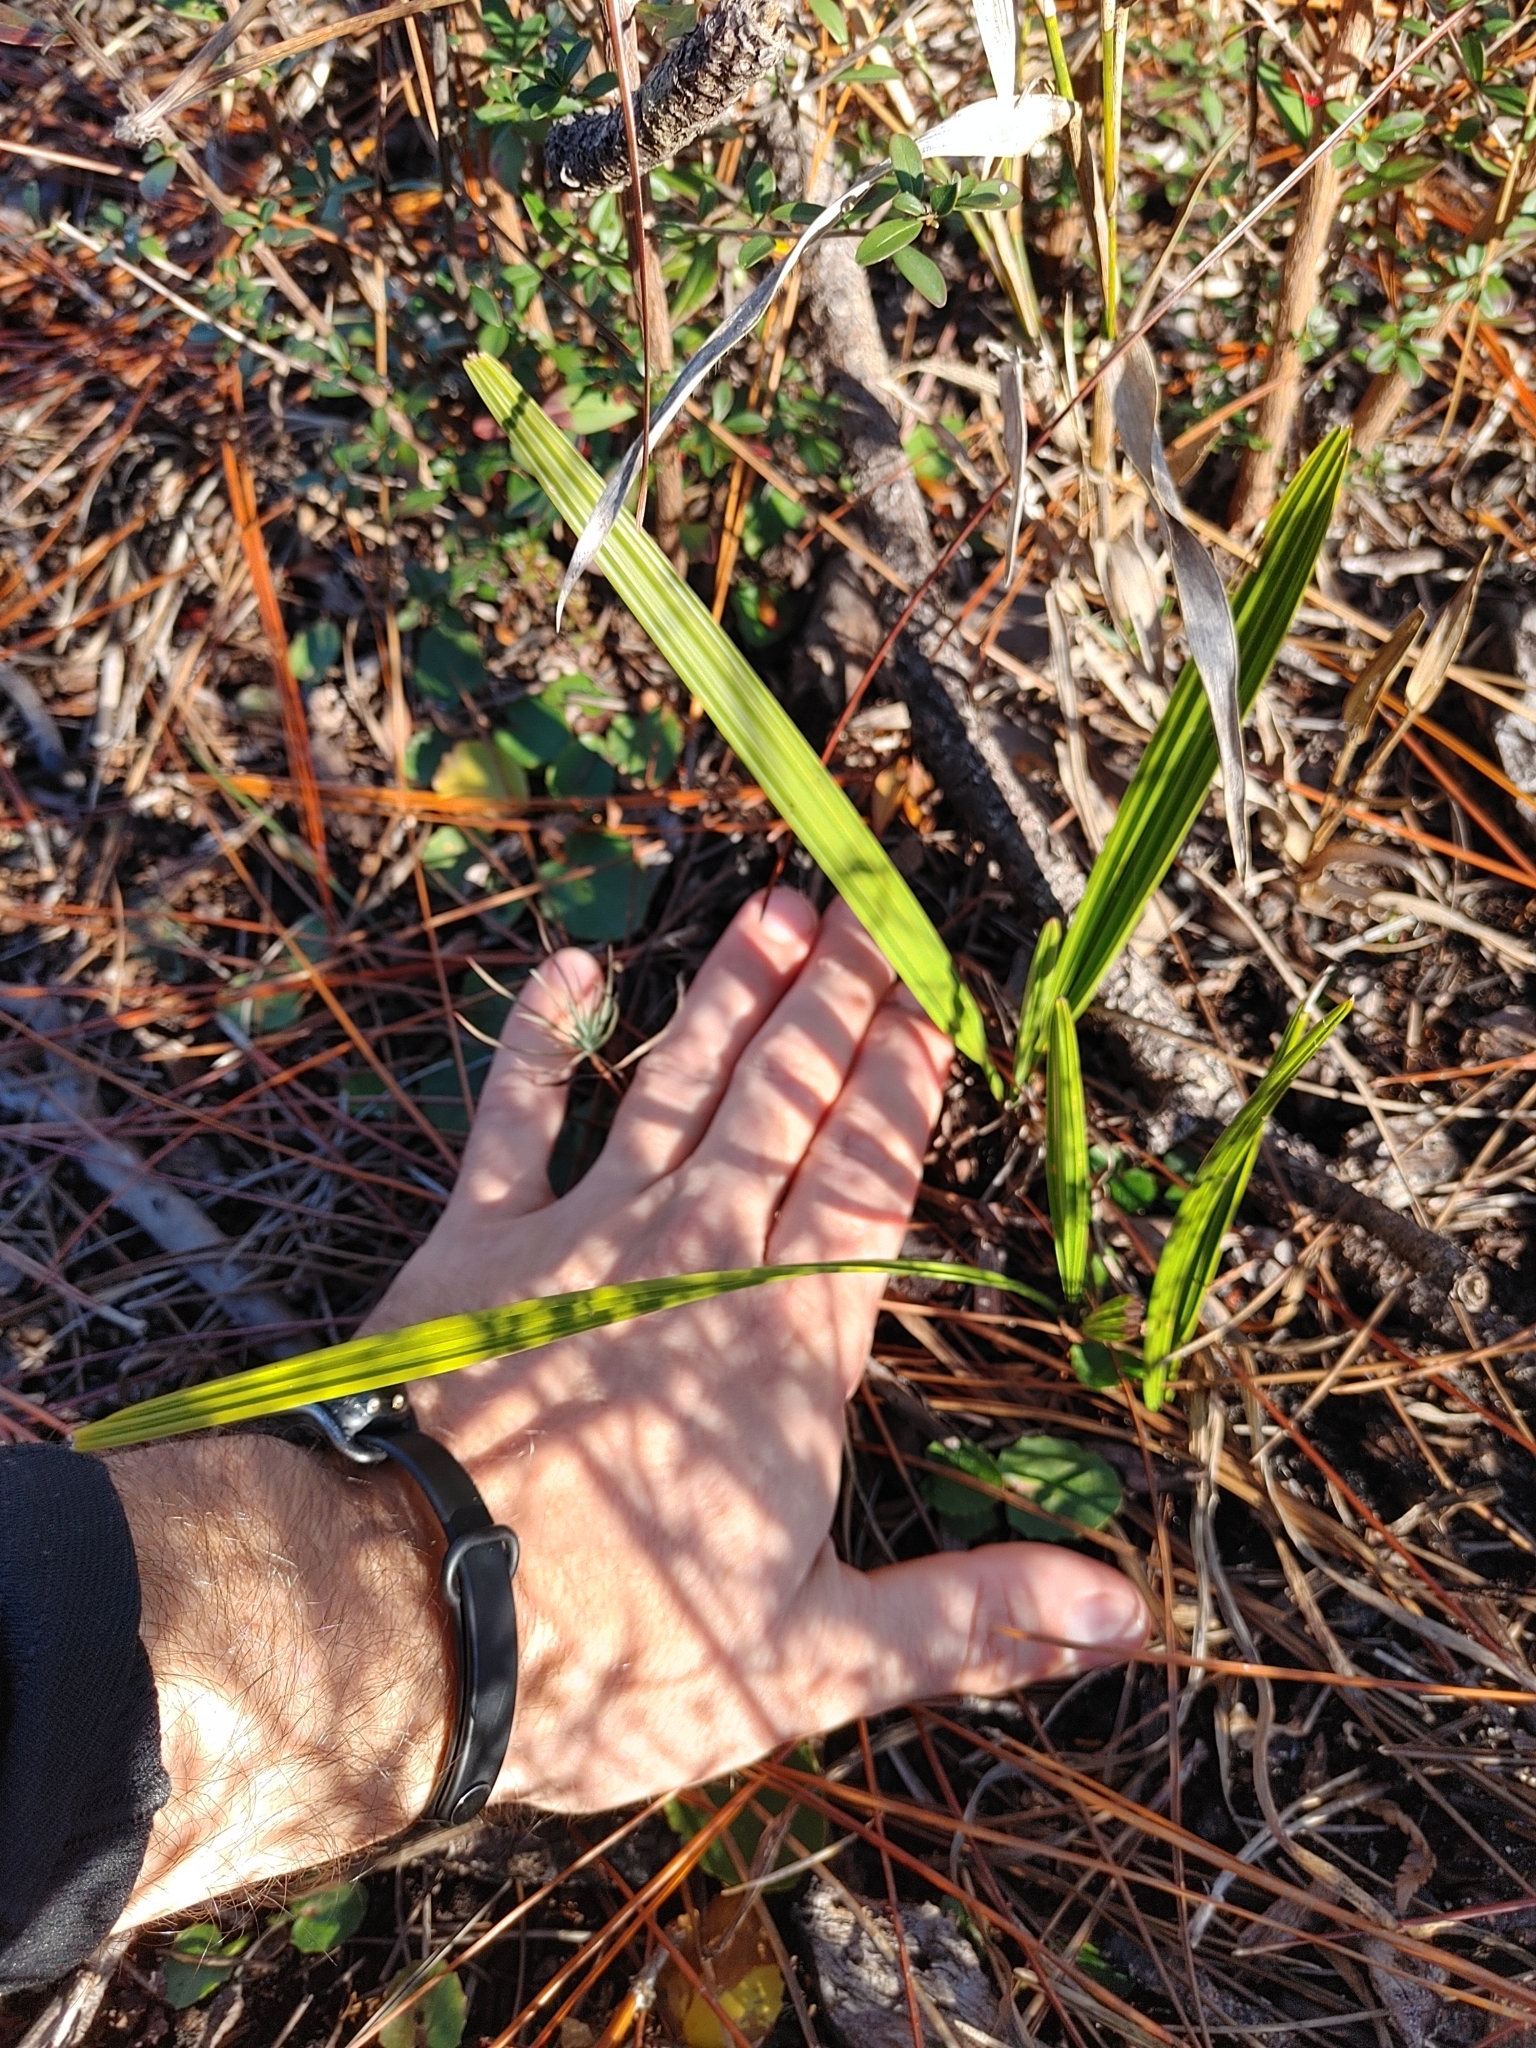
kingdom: Plantae
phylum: Tracheophyta
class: Liliopsida
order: Arecales
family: Arecaceae
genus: Serenoa
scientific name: Serenoa repens
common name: Saw-palmetto
